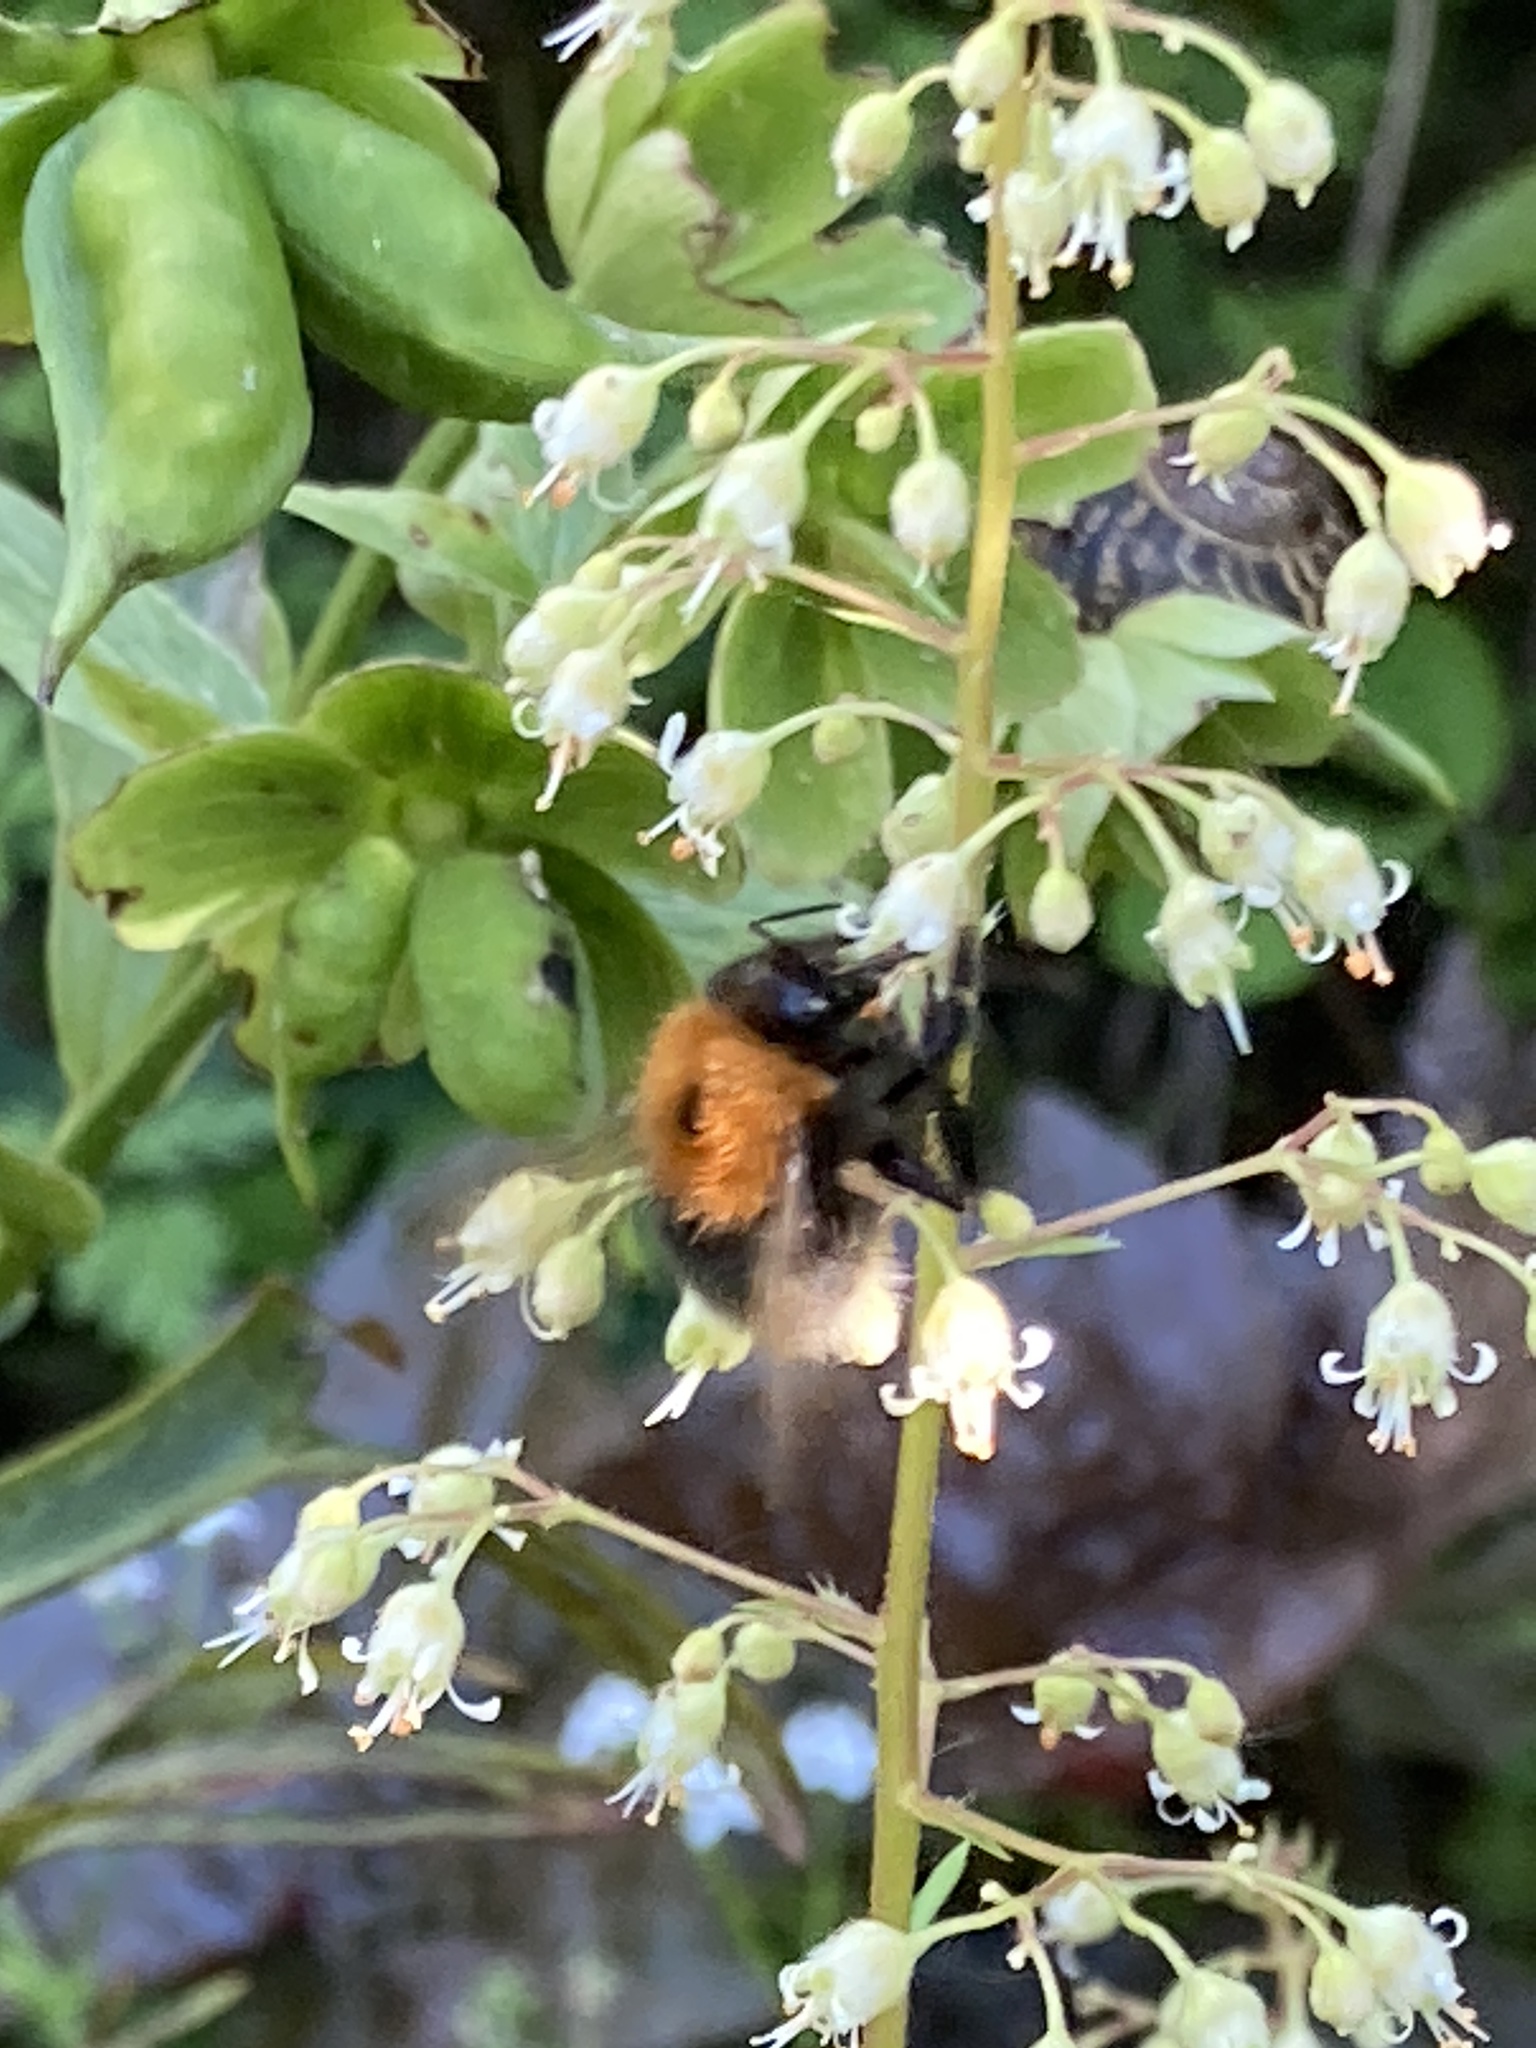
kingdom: Animalia
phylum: Arthropoda
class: Insecta
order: Hymenoptera
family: Apidae
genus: Bombus
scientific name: Bombus hypnorum
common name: New garden bumblebee
